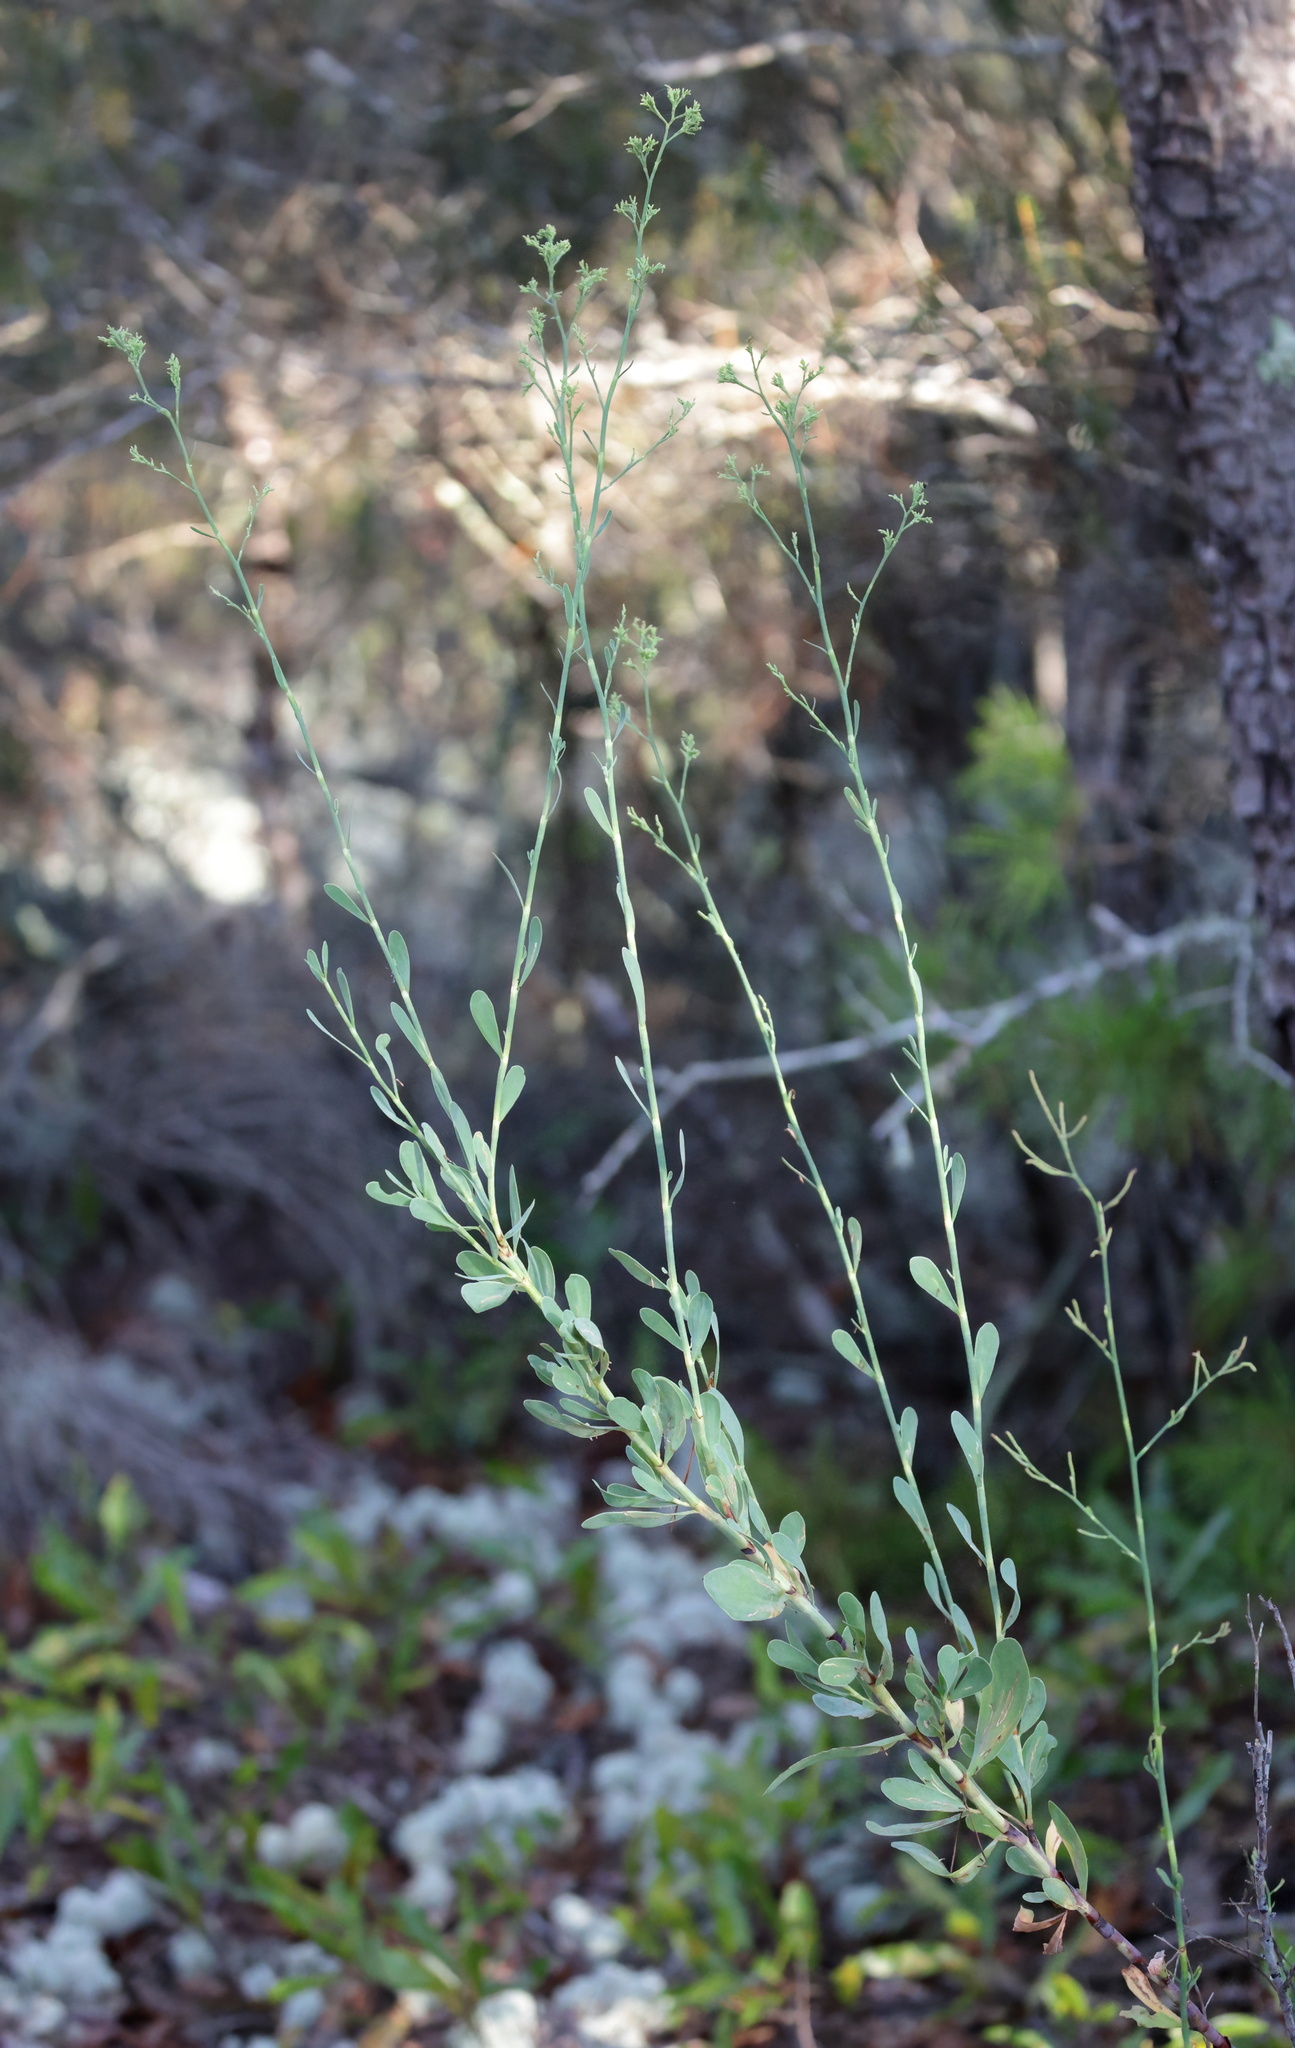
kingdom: Plantae
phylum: Tracheophyta
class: Magnoliopsida
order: Caryophyllales
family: Polygonaceae
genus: Polygonella
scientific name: Polygonella gracilis
